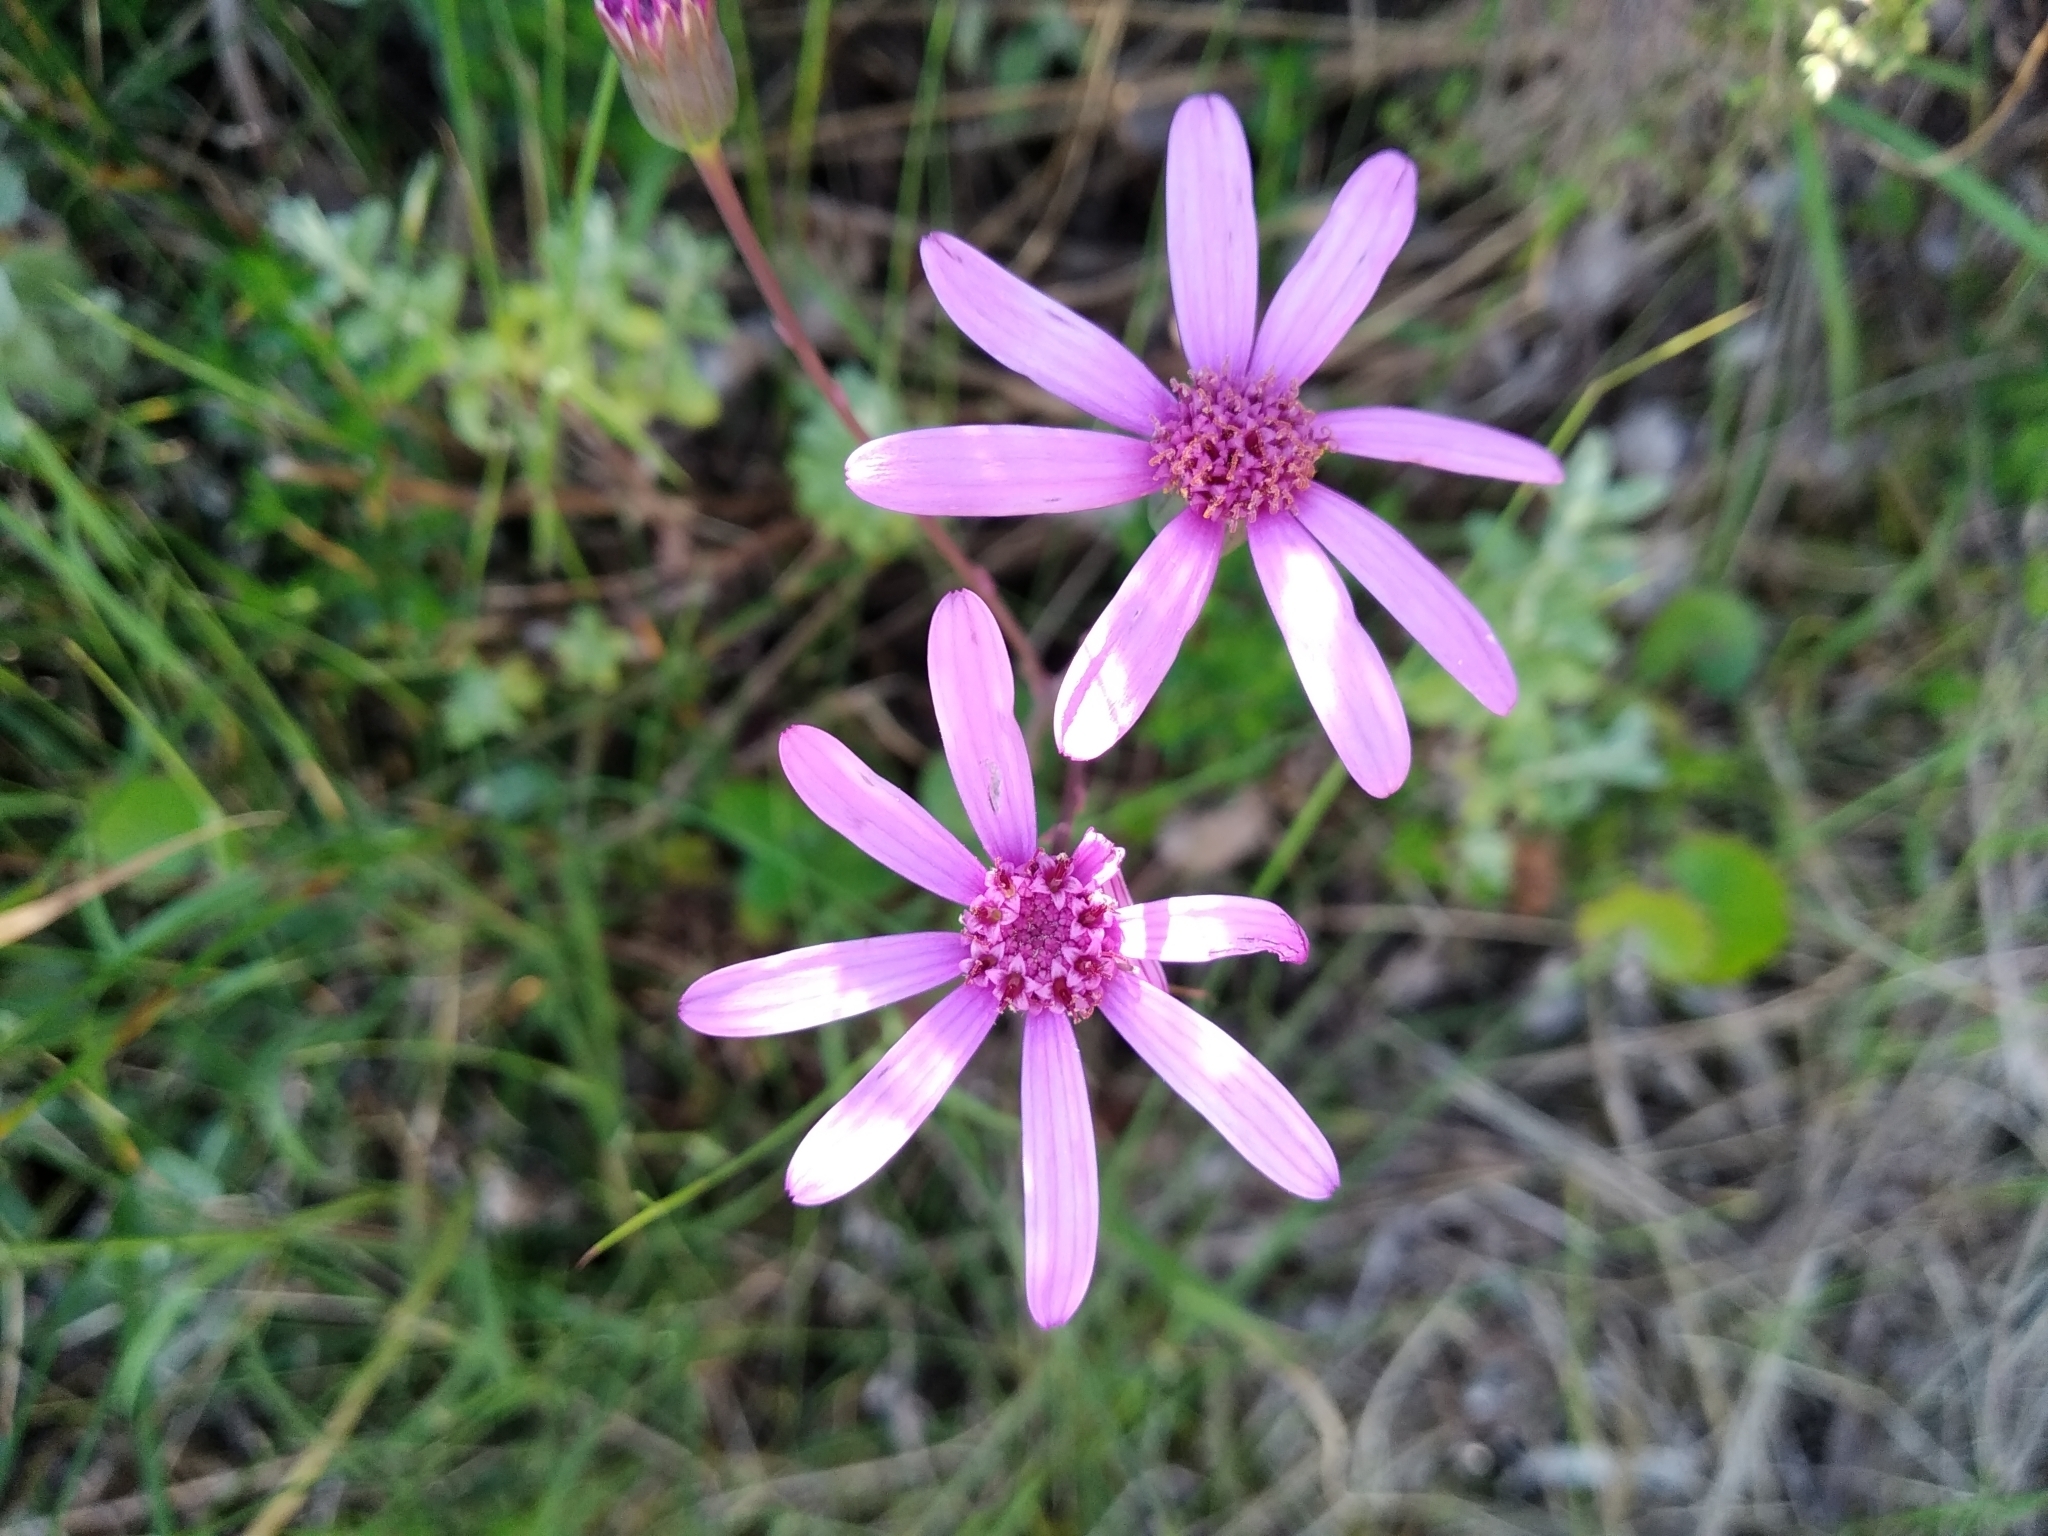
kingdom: Plantae
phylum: Tracheophyta
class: Magnoliopsida
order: Asterales
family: Asteraceae
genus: Senecio
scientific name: Senecio cymbalariifolius
